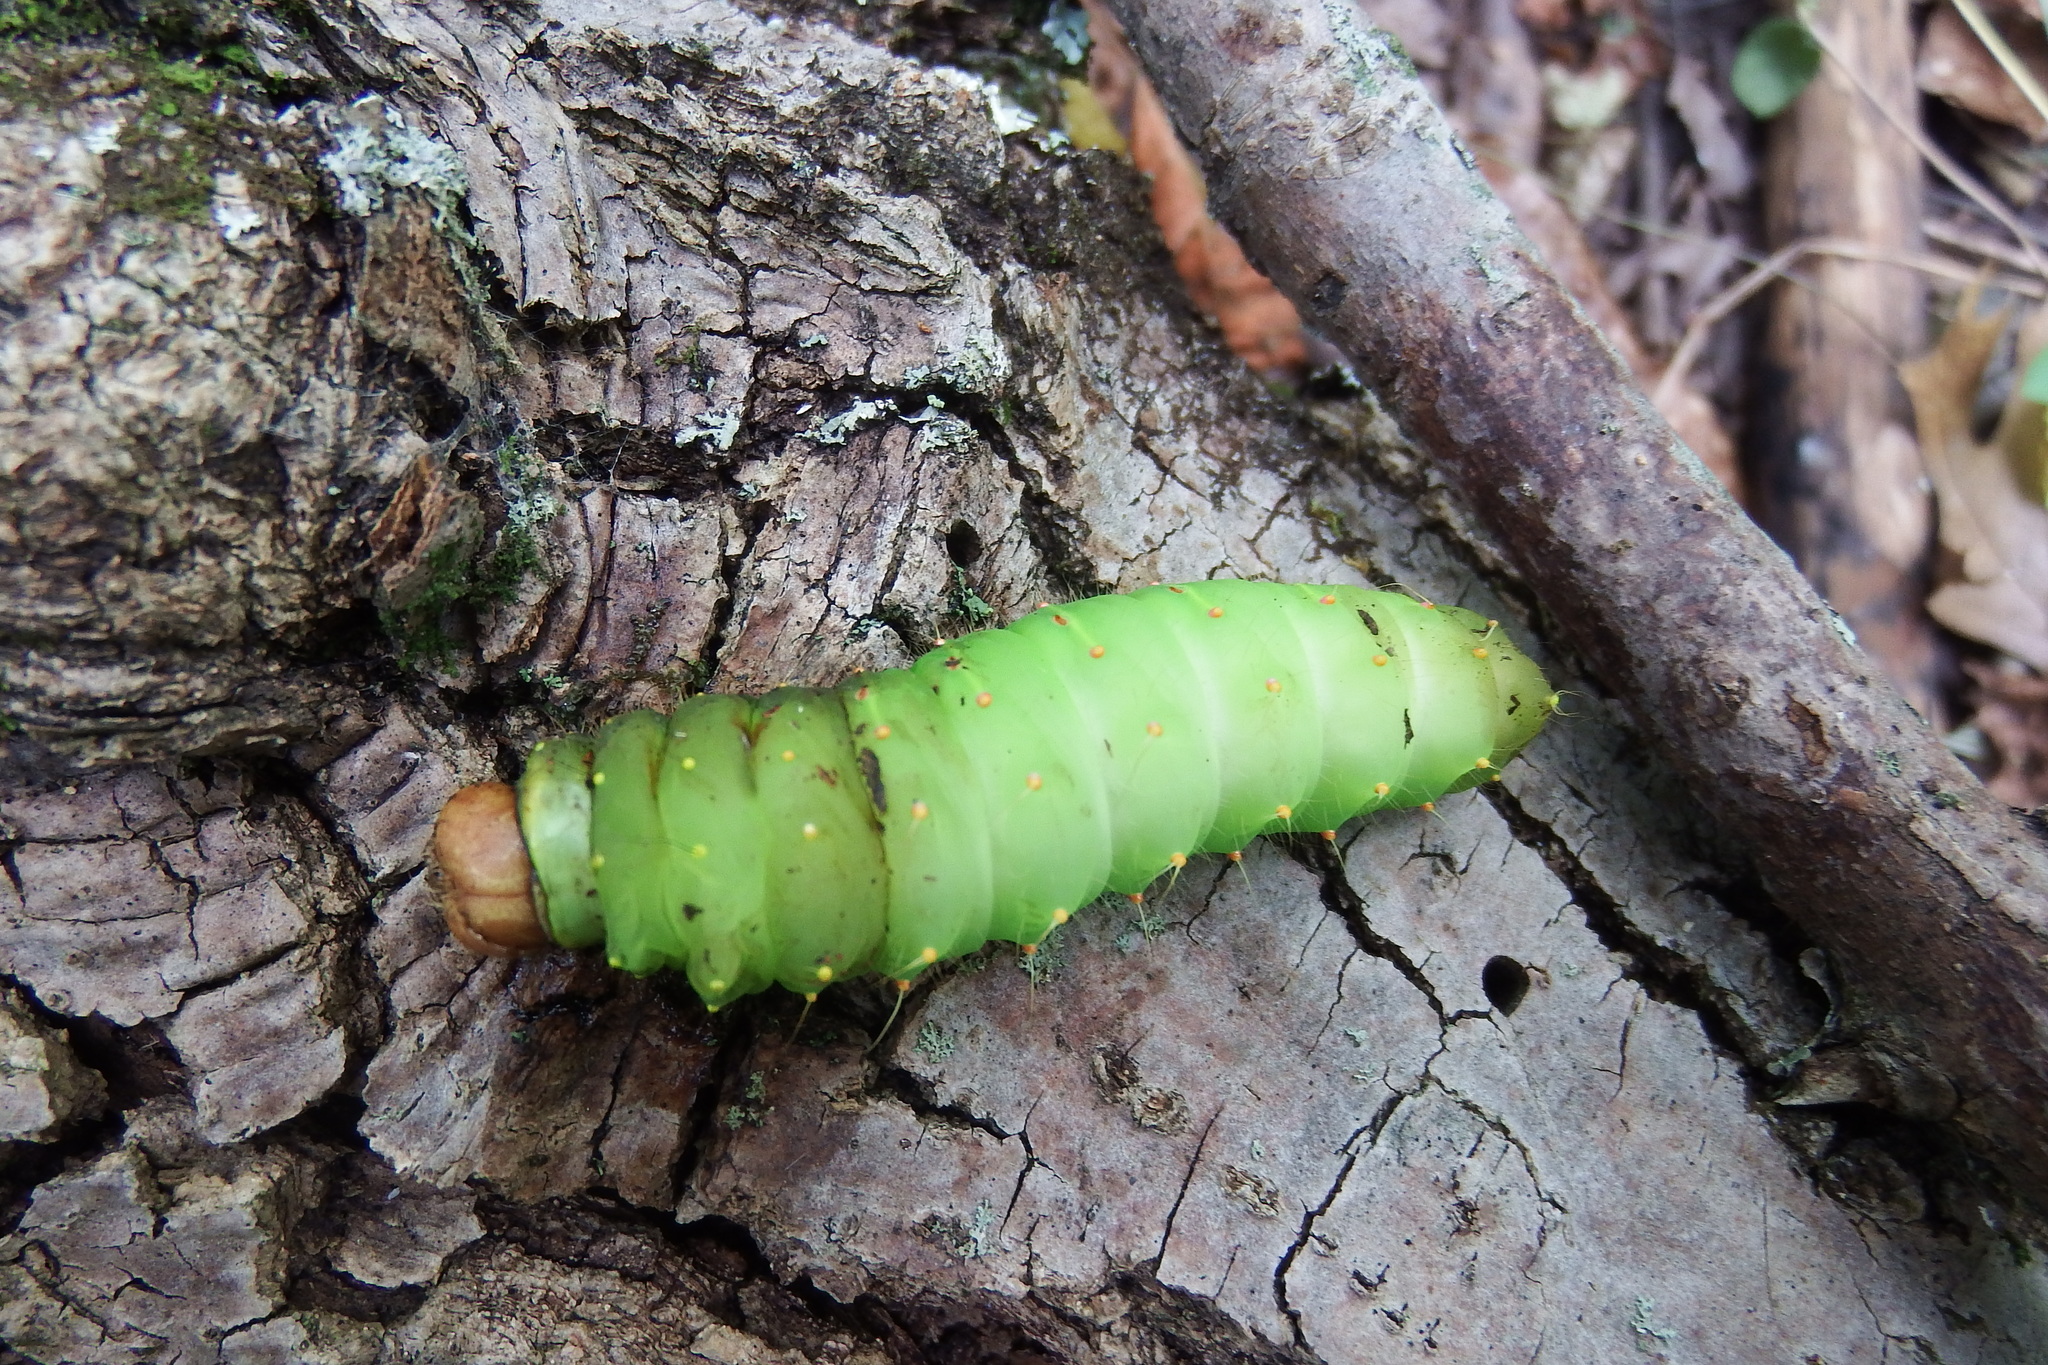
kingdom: Animalia
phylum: Arthropoda
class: Insecta
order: Lepidoptera
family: Saturniidae
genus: Antheraea
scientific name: Antheraea polyphemus
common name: Polyphemus moth
